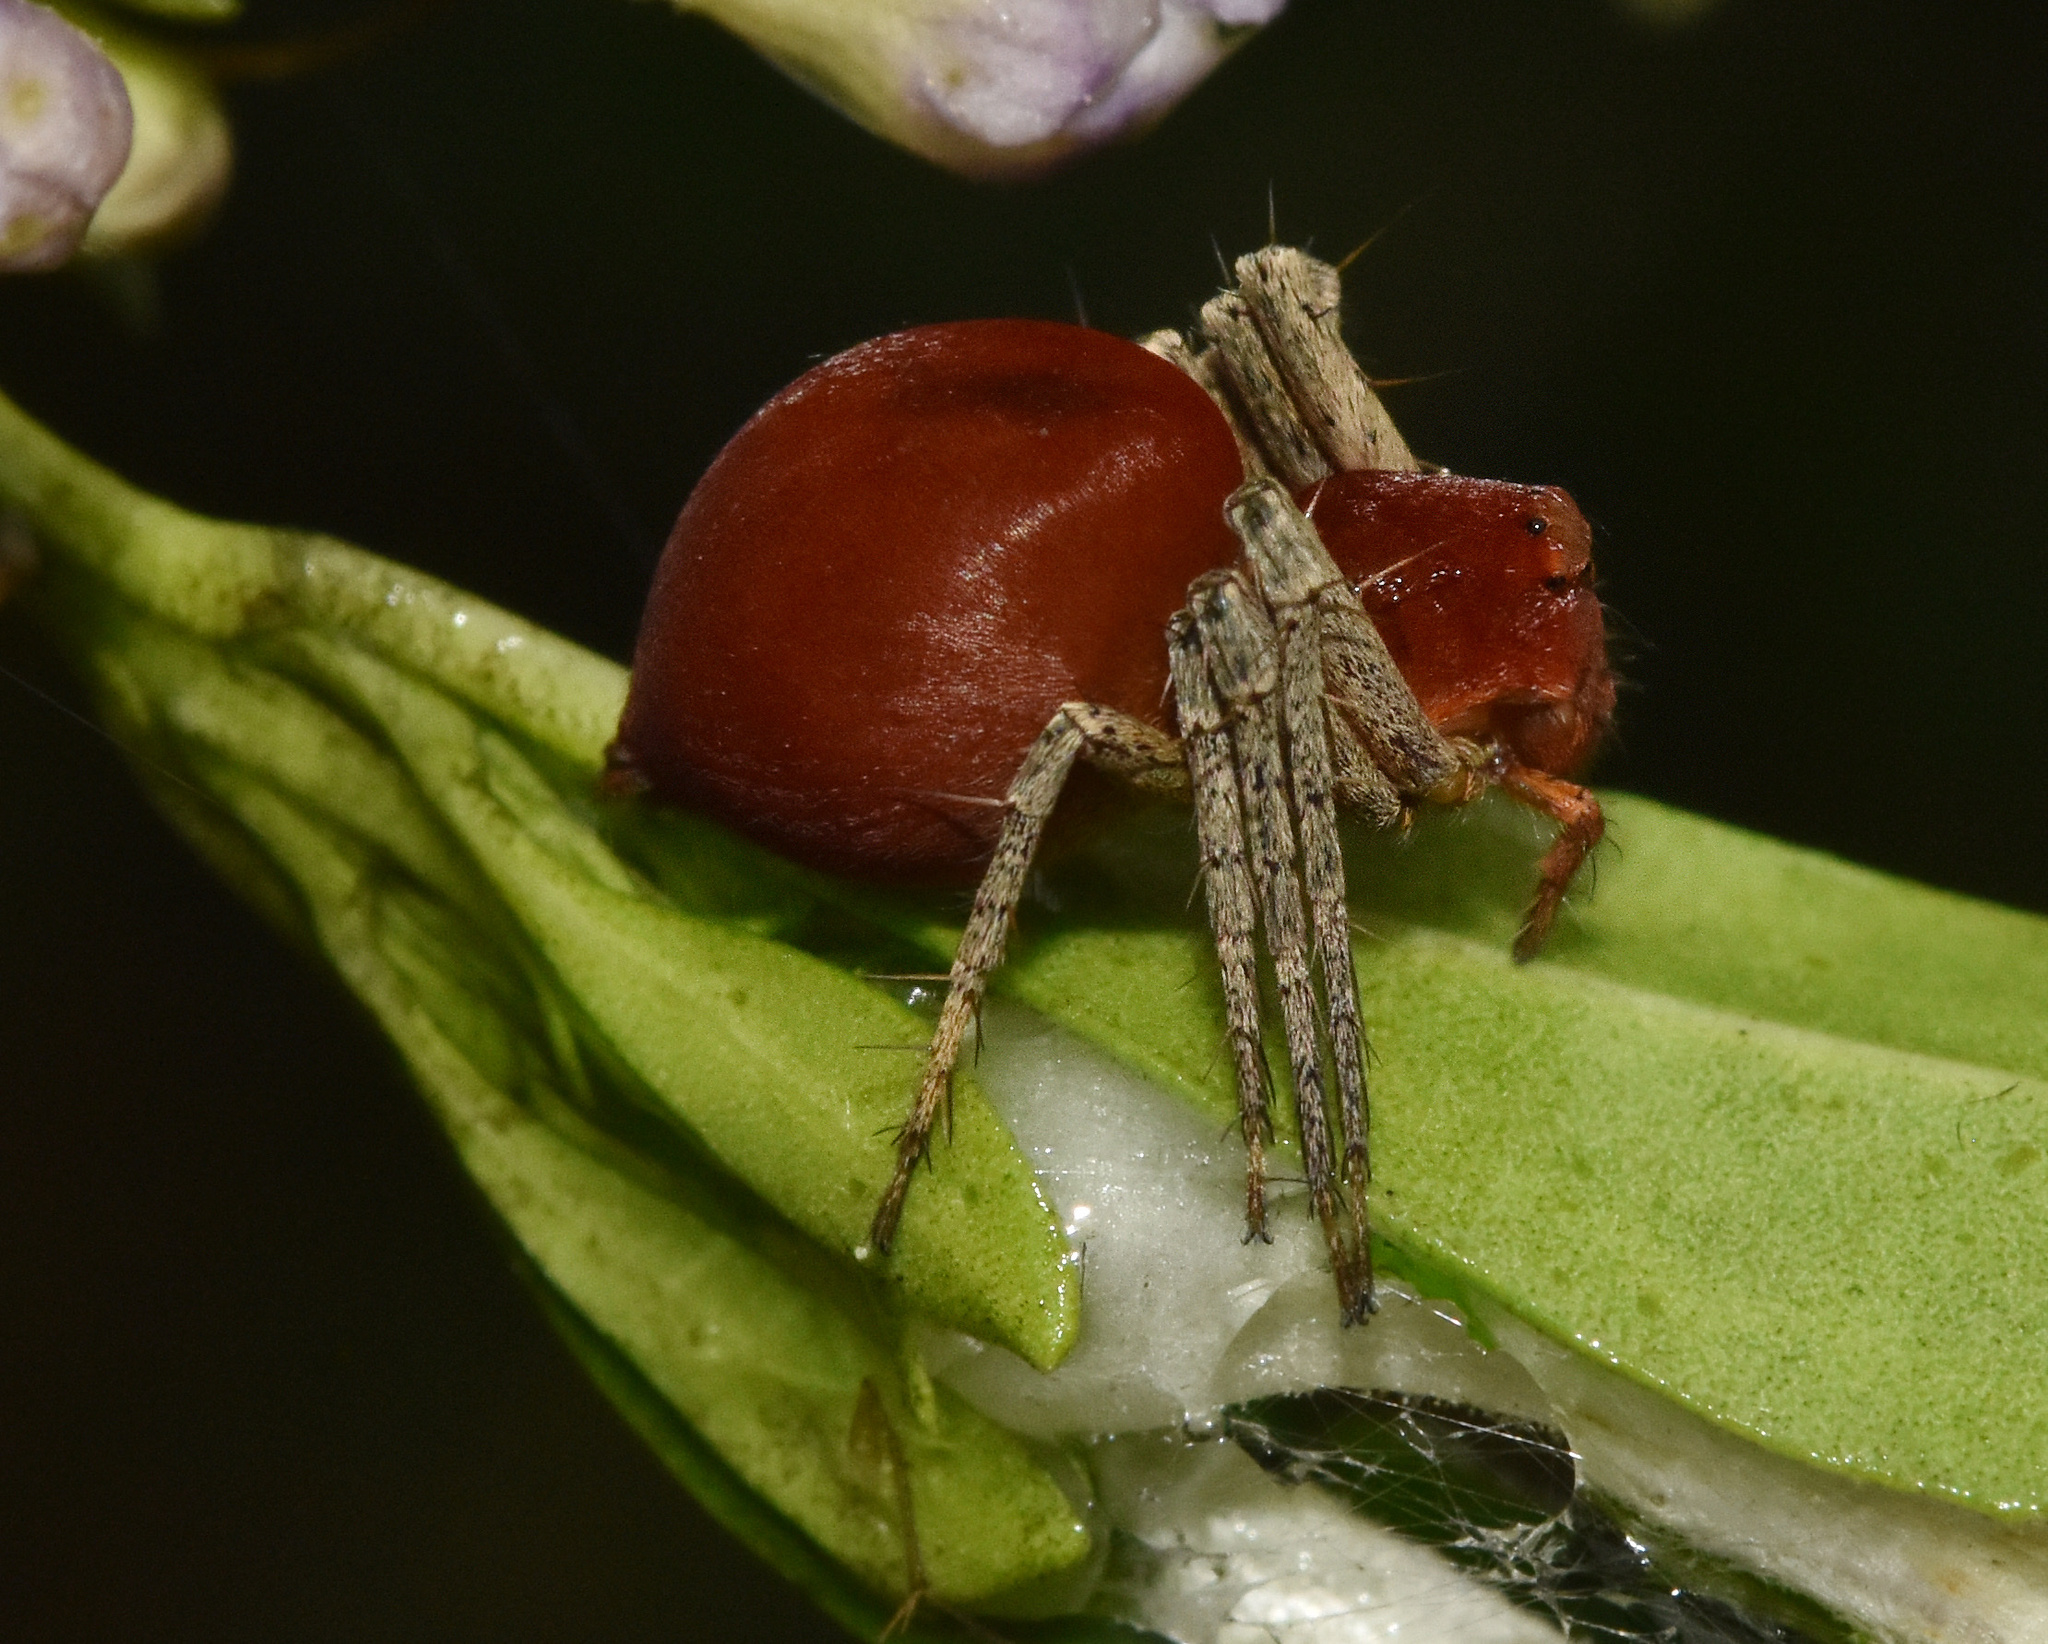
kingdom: Animalia
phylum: Arthropoda
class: Arachnida
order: Araneae
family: Oxyopidae
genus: Oxyopes
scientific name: Oxyopes flavipalpis
